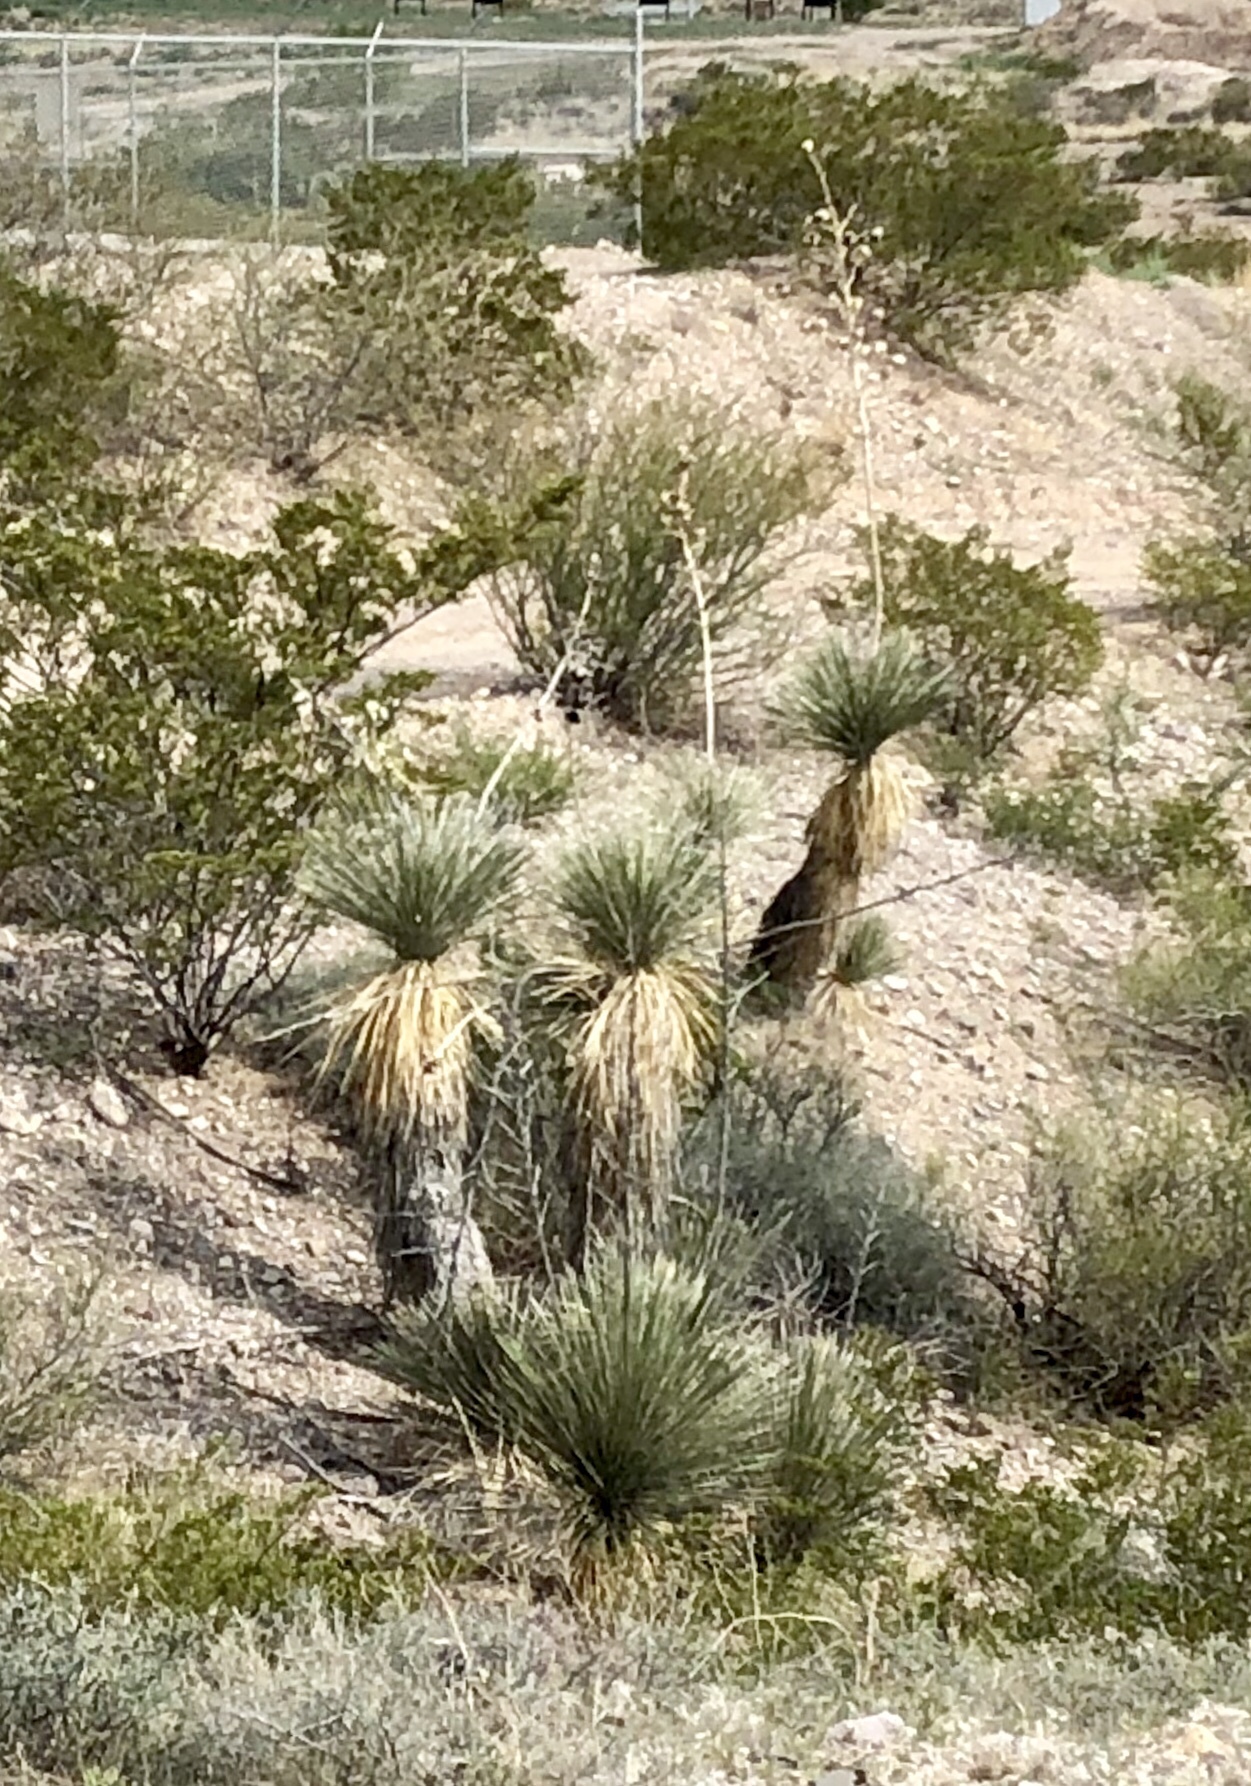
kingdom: Plantae
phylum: Tracheophyta
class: Liliopsida
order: Asparagales
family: Asparagaceae
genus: Yucca
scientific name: Yucca elata
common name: Palmella
